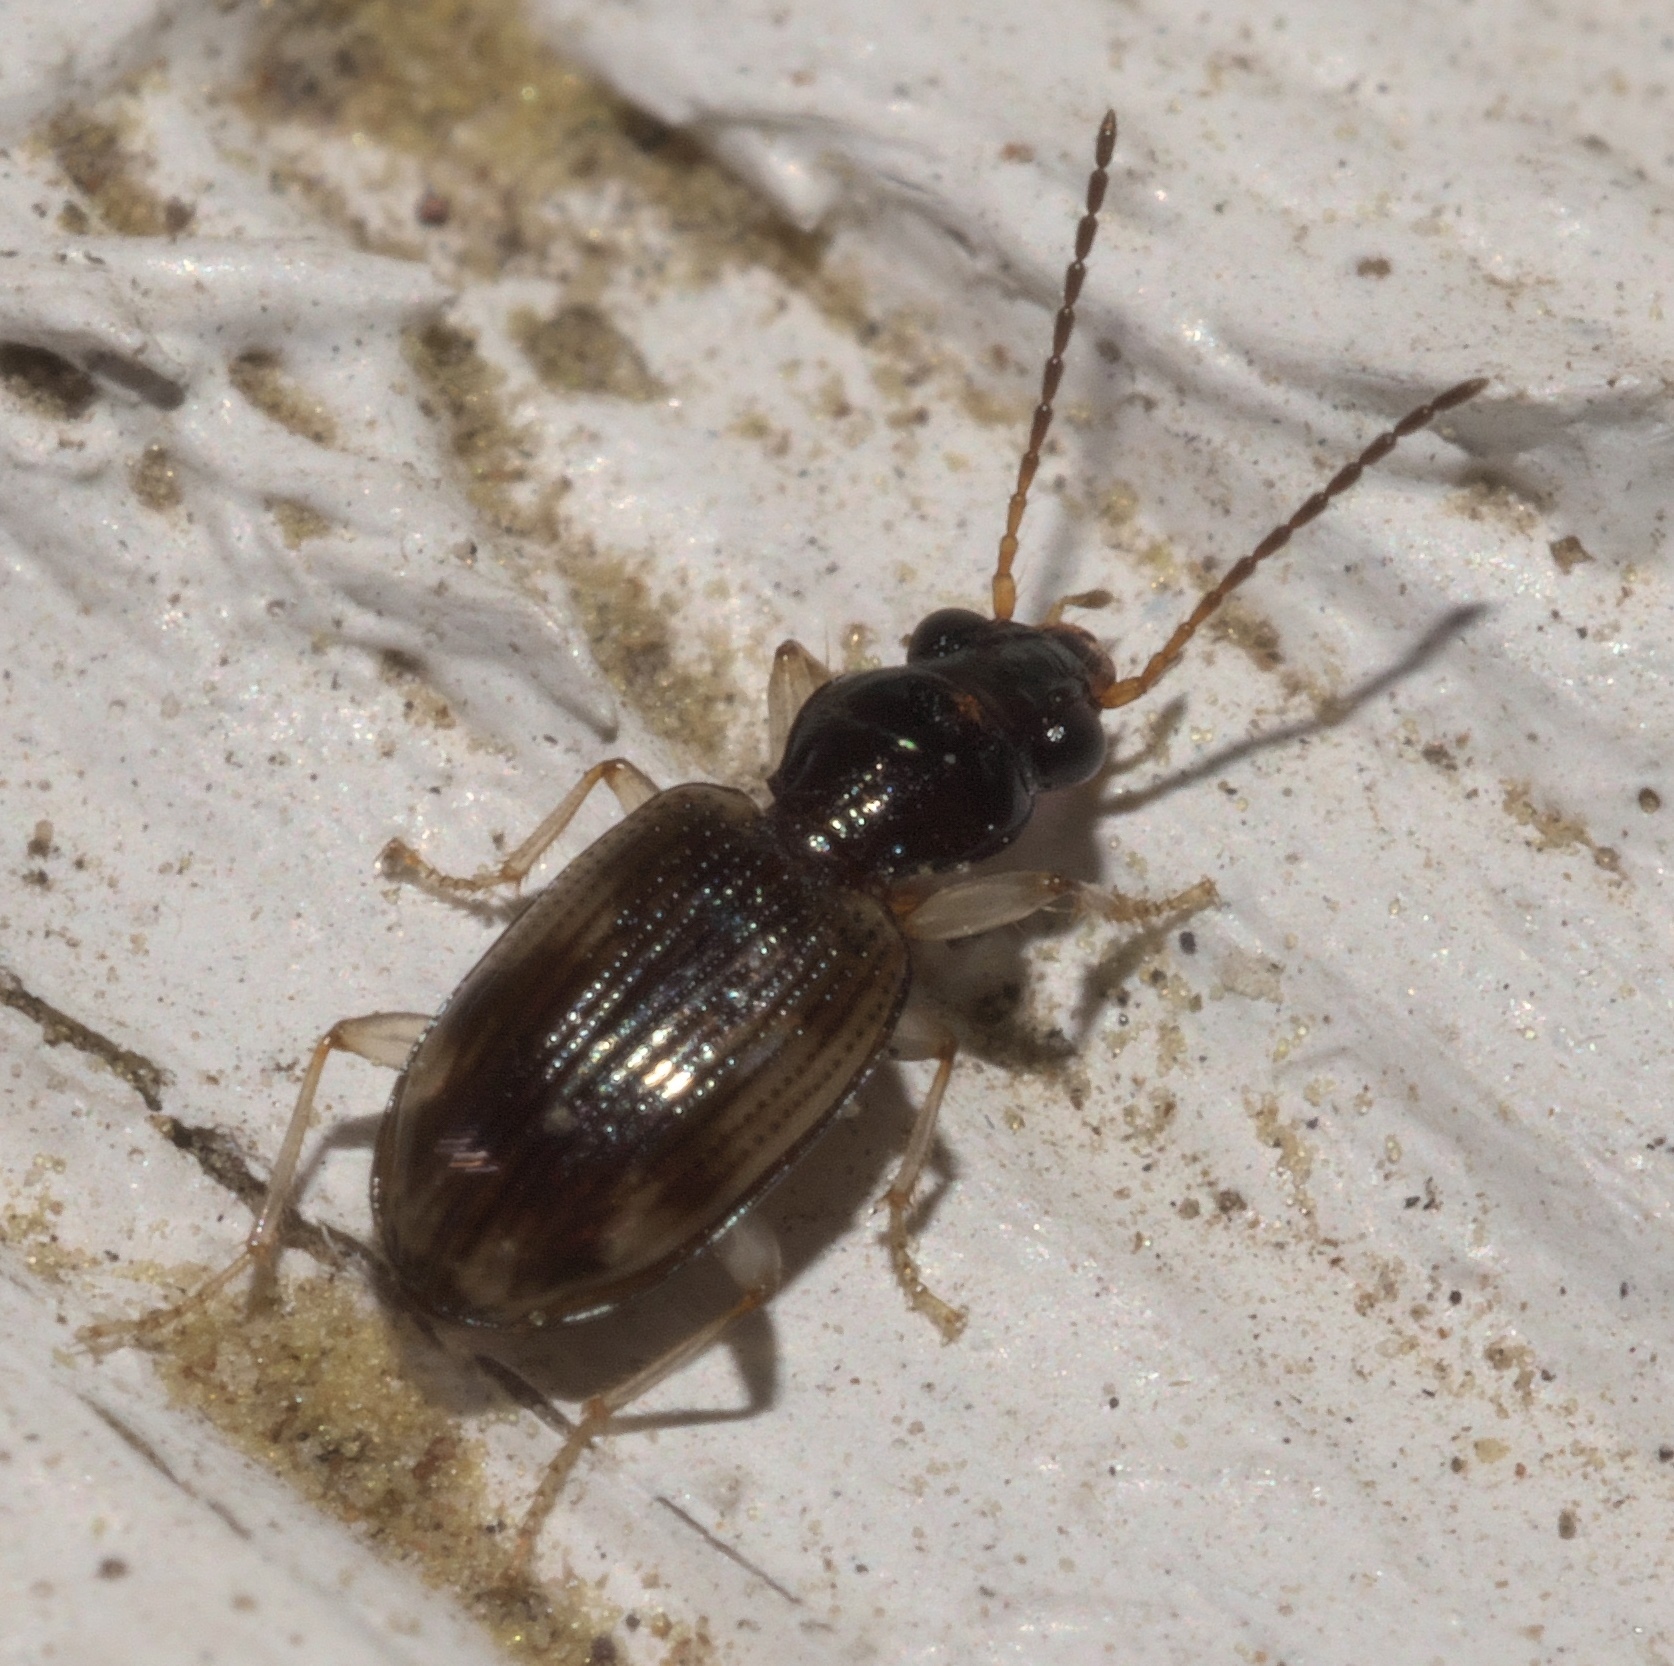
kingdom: Animalia
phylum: Arthropoda
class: Insecta
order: Coleoptera
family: Carabidae
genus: Bembidion
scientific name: Bembidion affine
